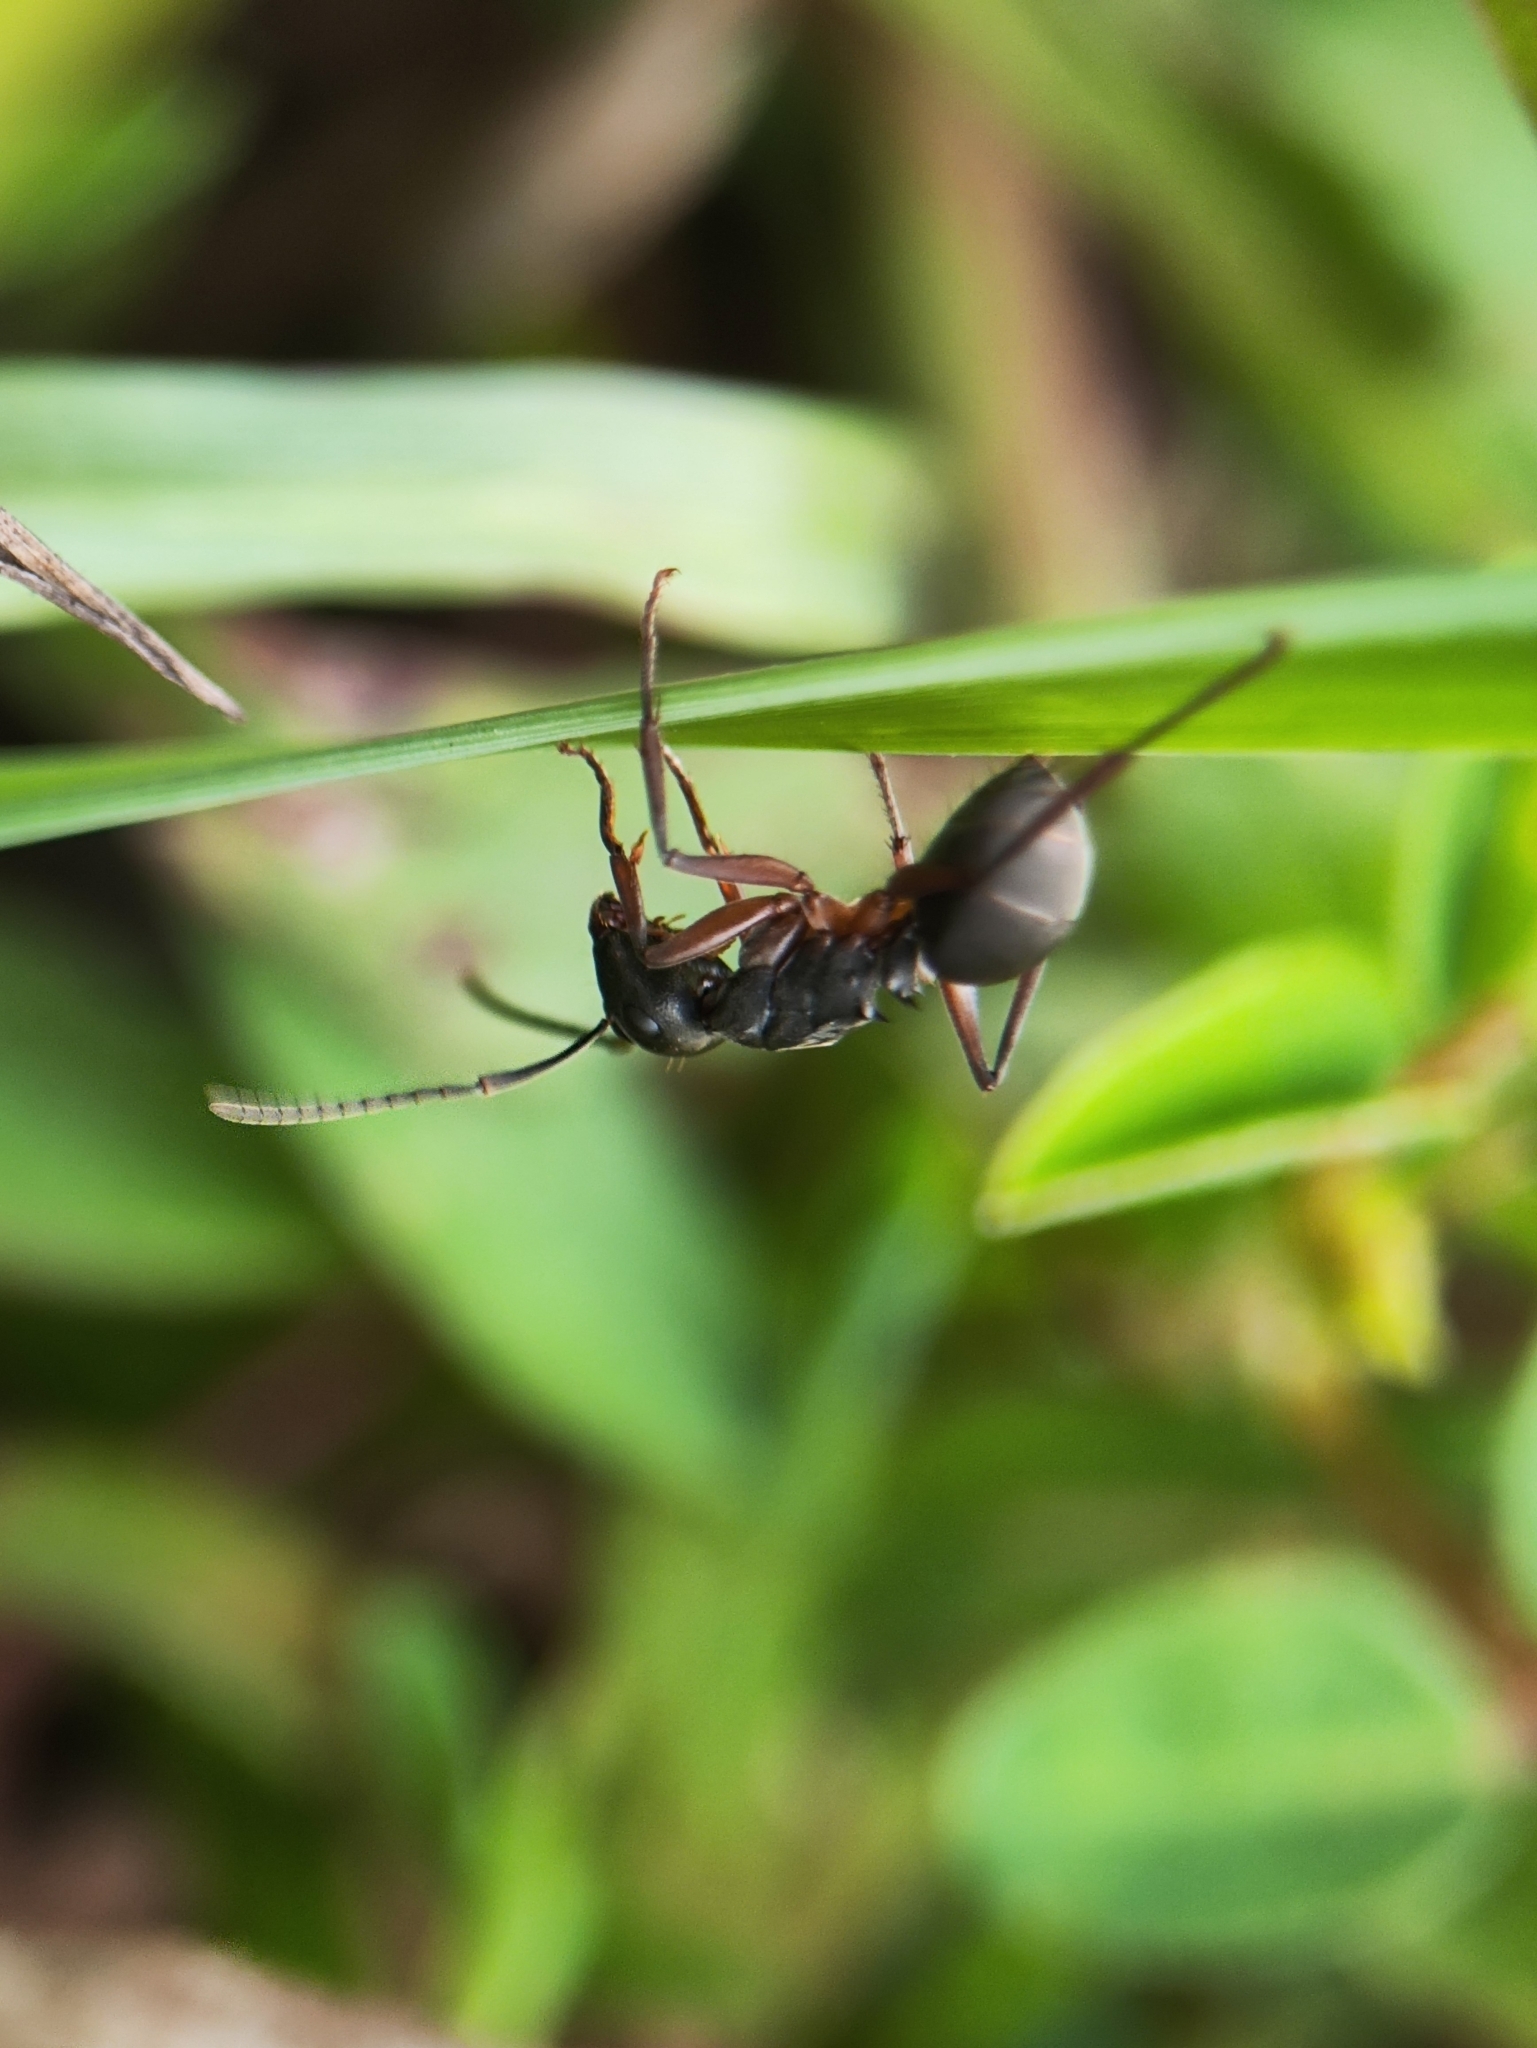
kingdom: Animalia
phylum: Arthropoda
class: Insecta
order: Hymenoptera
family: Formicidae
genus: Polyrhachis
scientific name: Polyrhachis exercita
